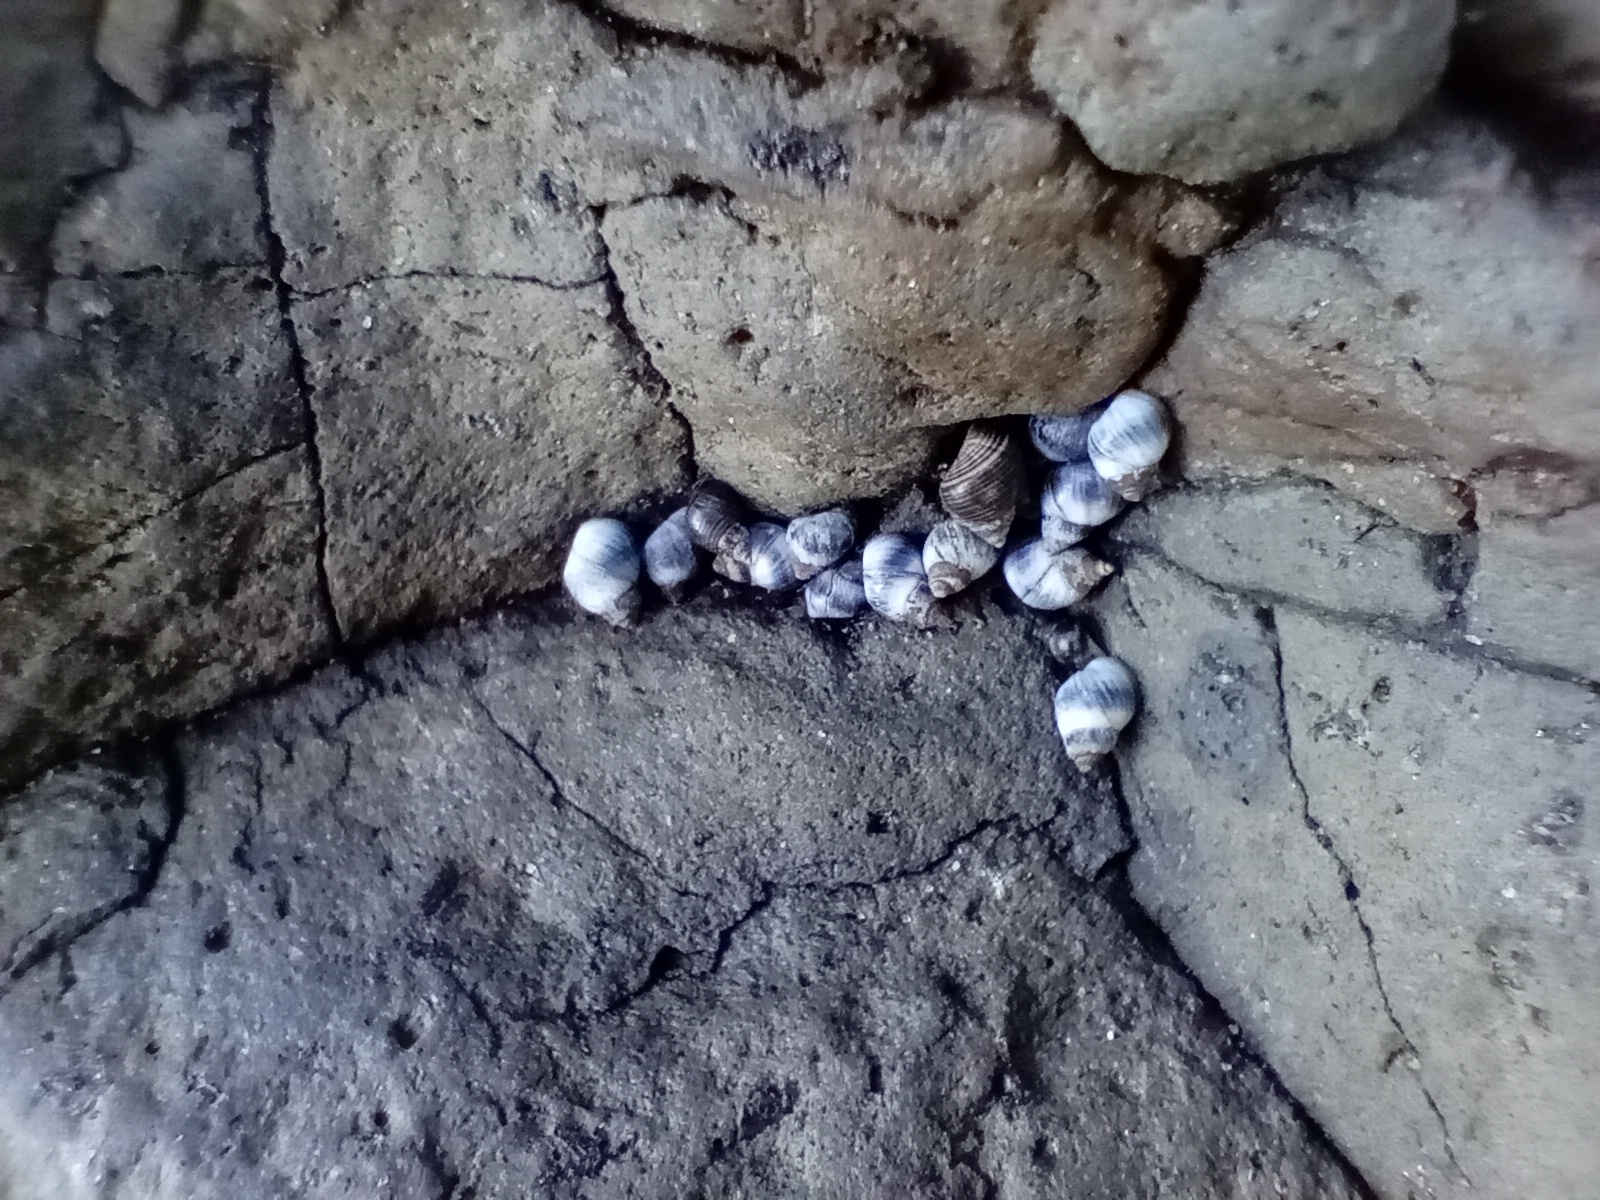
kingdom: Animalia
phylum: Mollusca
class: Gastropoda
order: Littorinimorpha
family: Littorinidae
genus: Austrolittorina
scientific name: Austrolittorina antipodum
